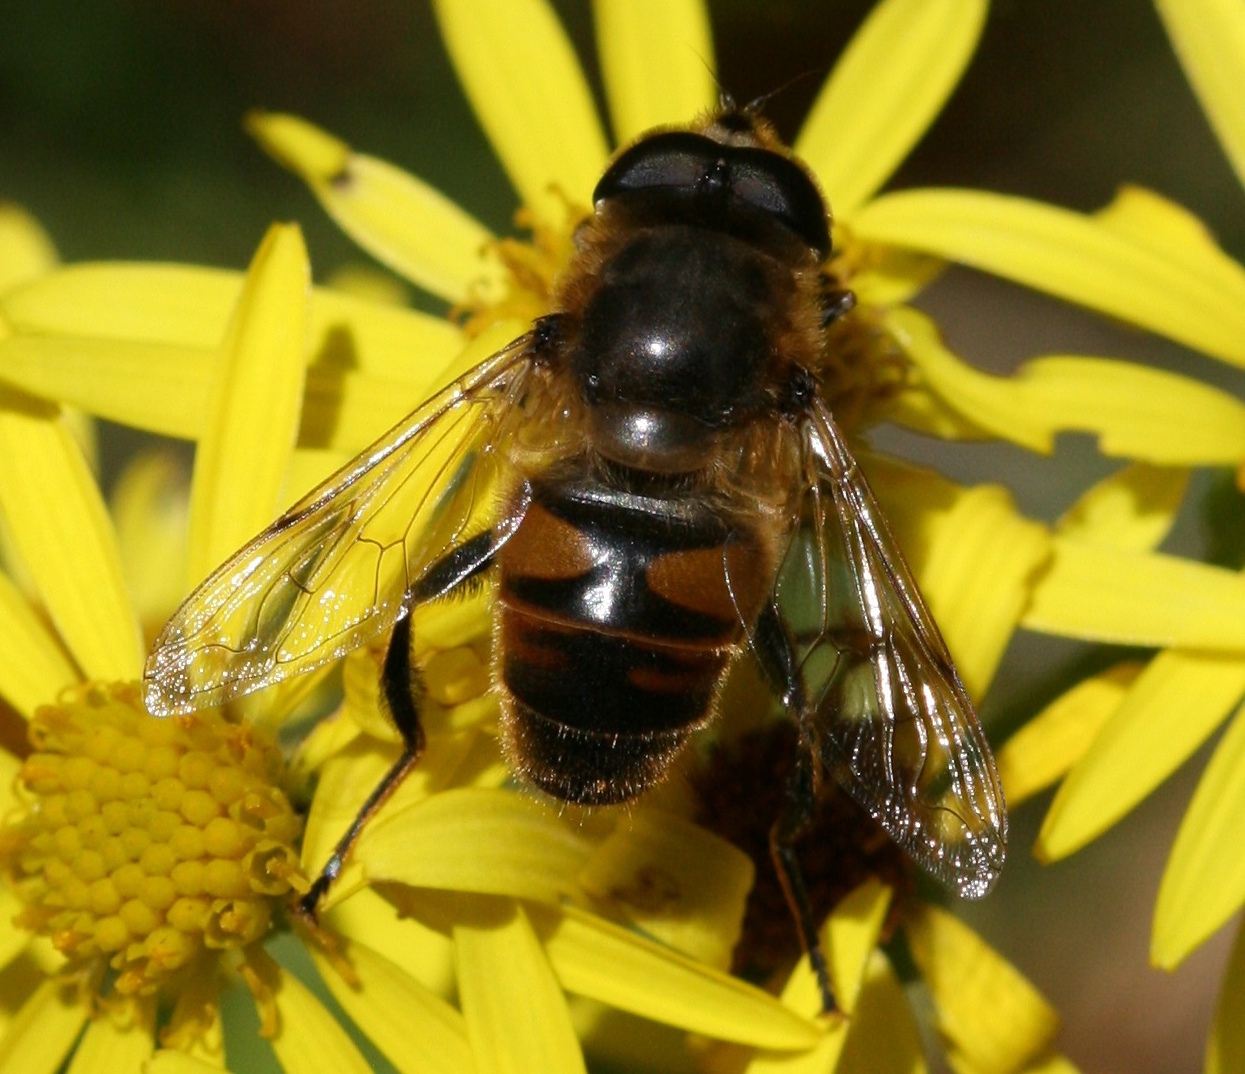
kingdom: Animalia
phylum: Arthropoda
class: Insecta
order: Diptera
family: Syrphidae
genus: Eristalis
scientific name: Eristalis tenax
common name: Drone fly
